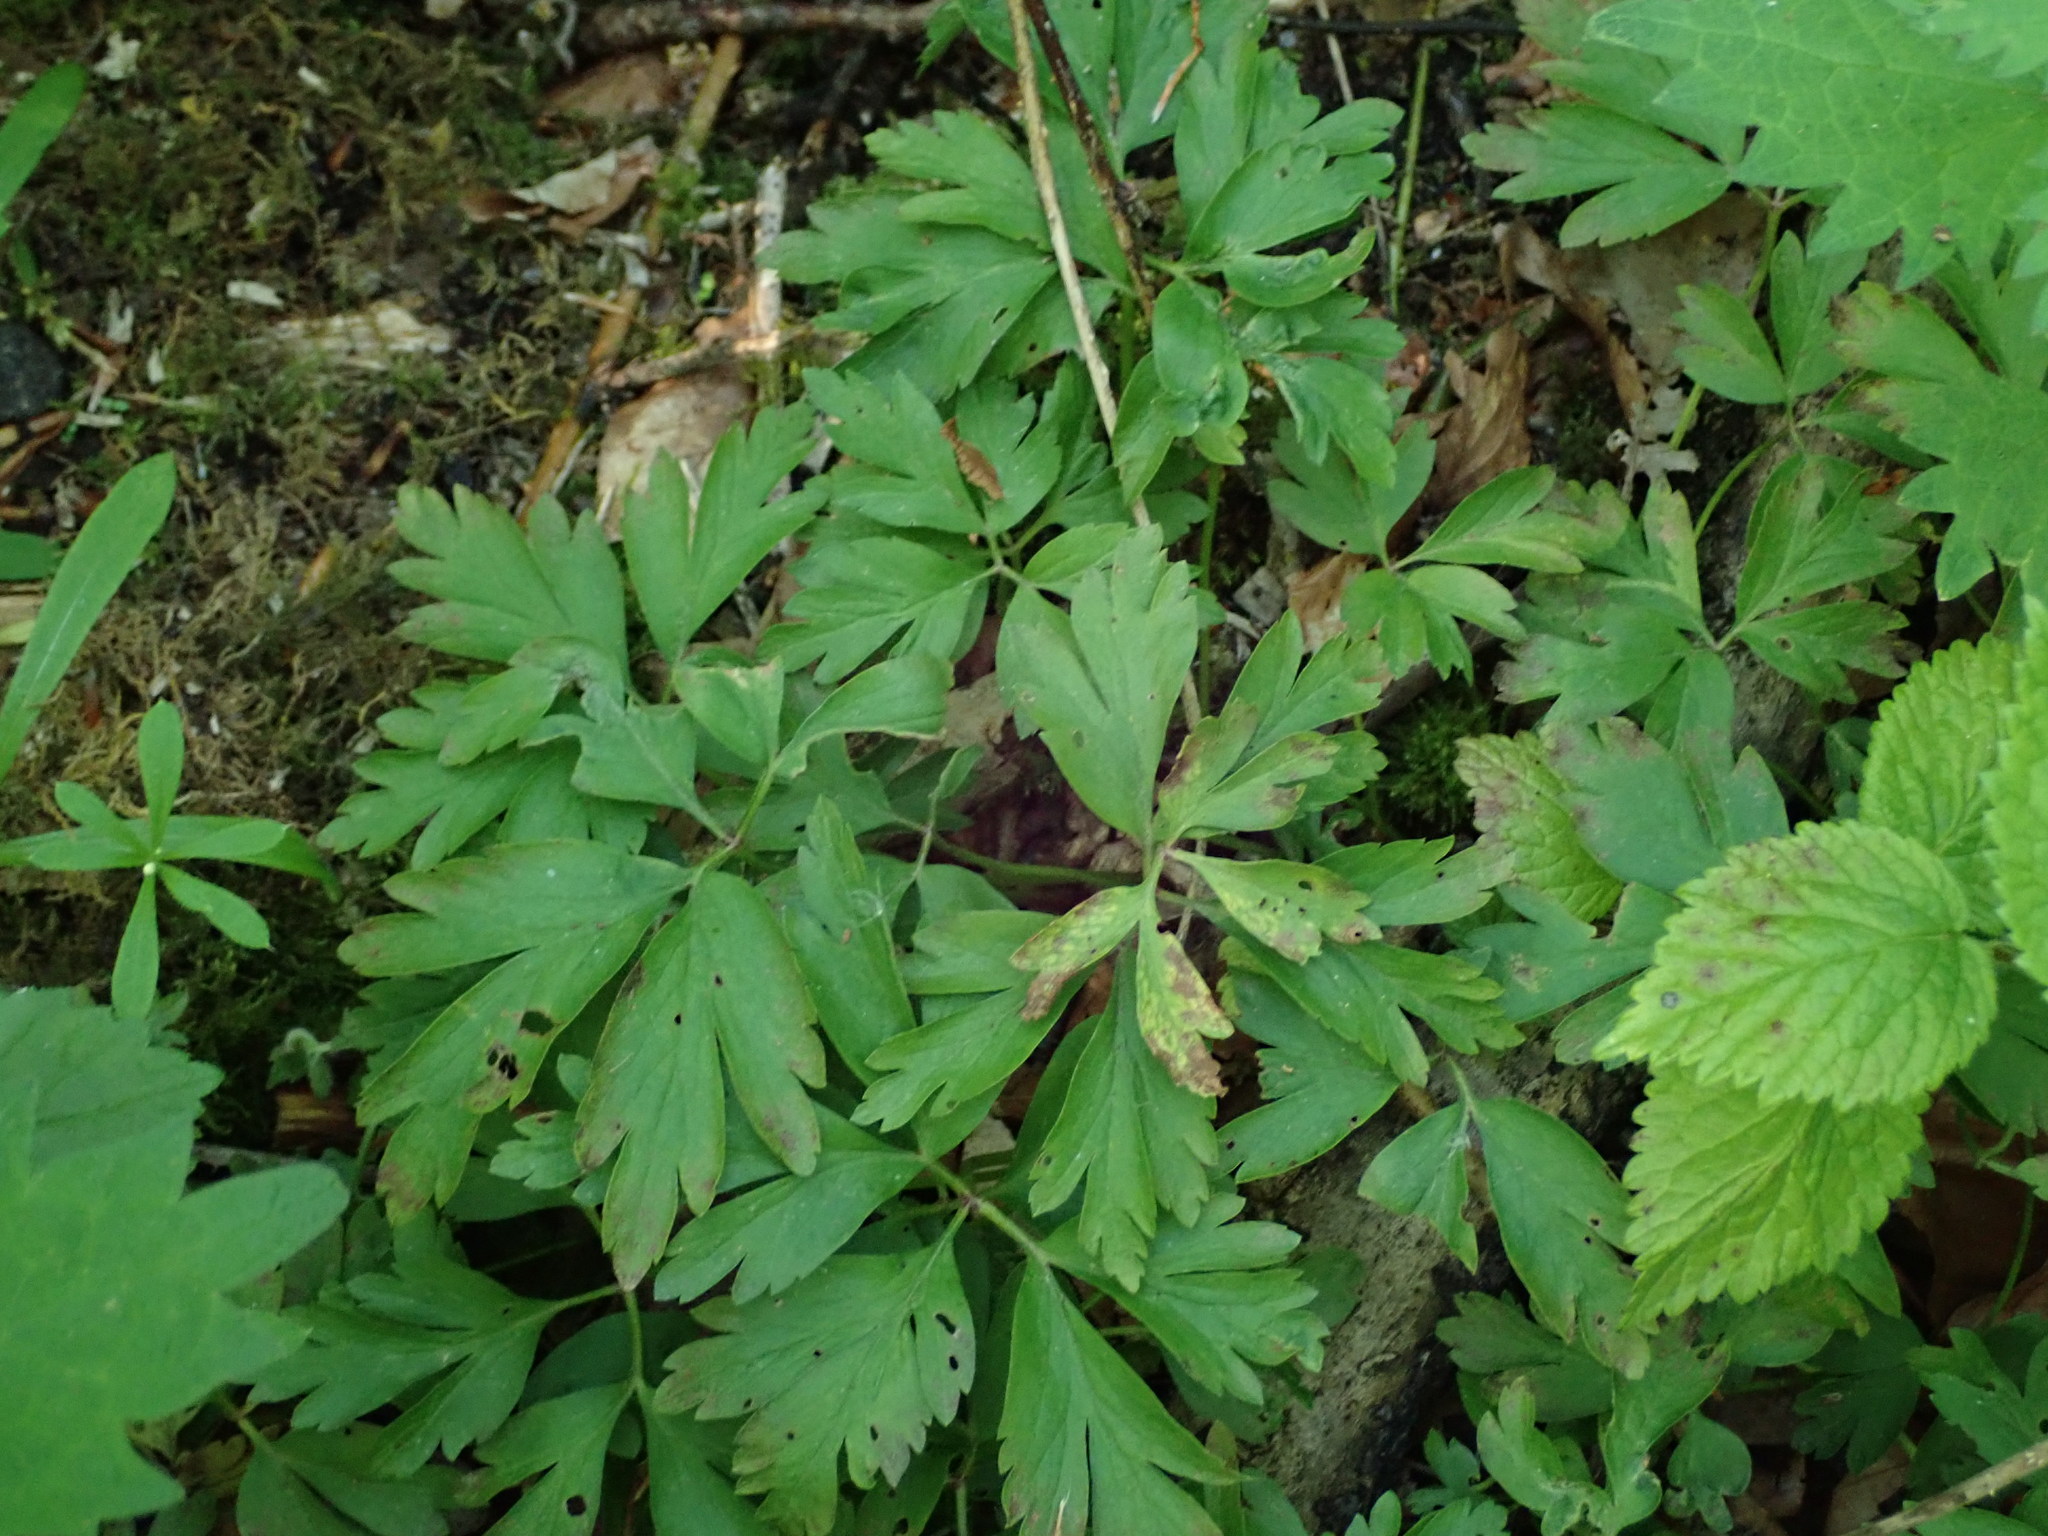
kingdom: Plantae
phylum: Tracheophyta
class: Magnoliopsida
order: Ranunculales
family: Ranunculaceae
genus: Anemone
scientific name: Anemone nemorosa
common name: Wood anemone
